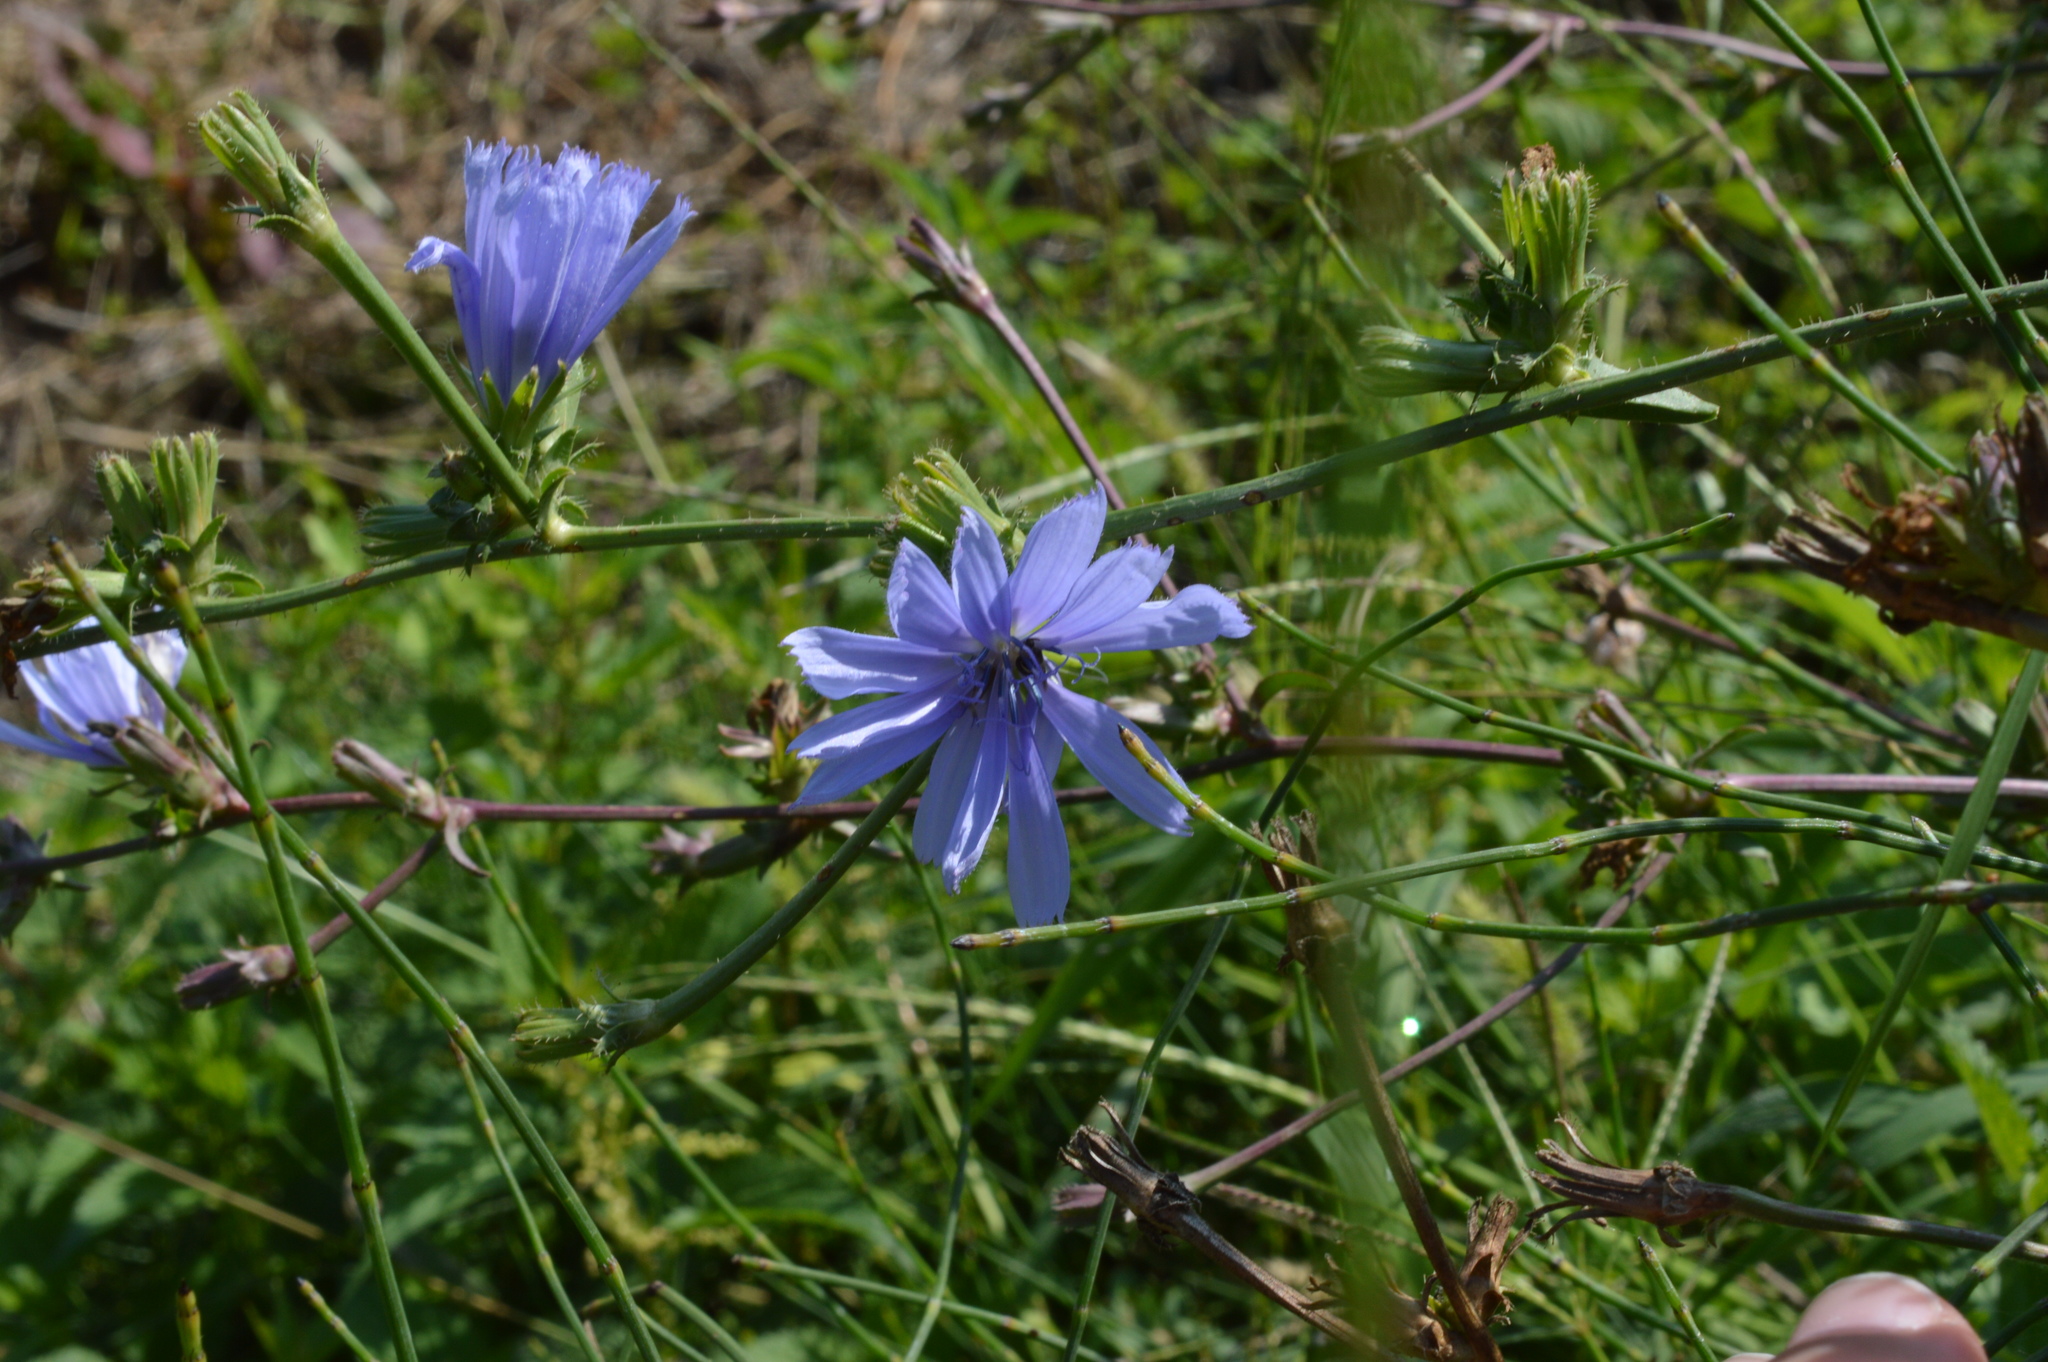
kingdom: Plantae
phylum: Tracheophyta
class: Magnoliopsida
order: Asterales
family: Asteraceae
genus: Cichorium
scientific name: Cichorium intybus
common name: Chicory
